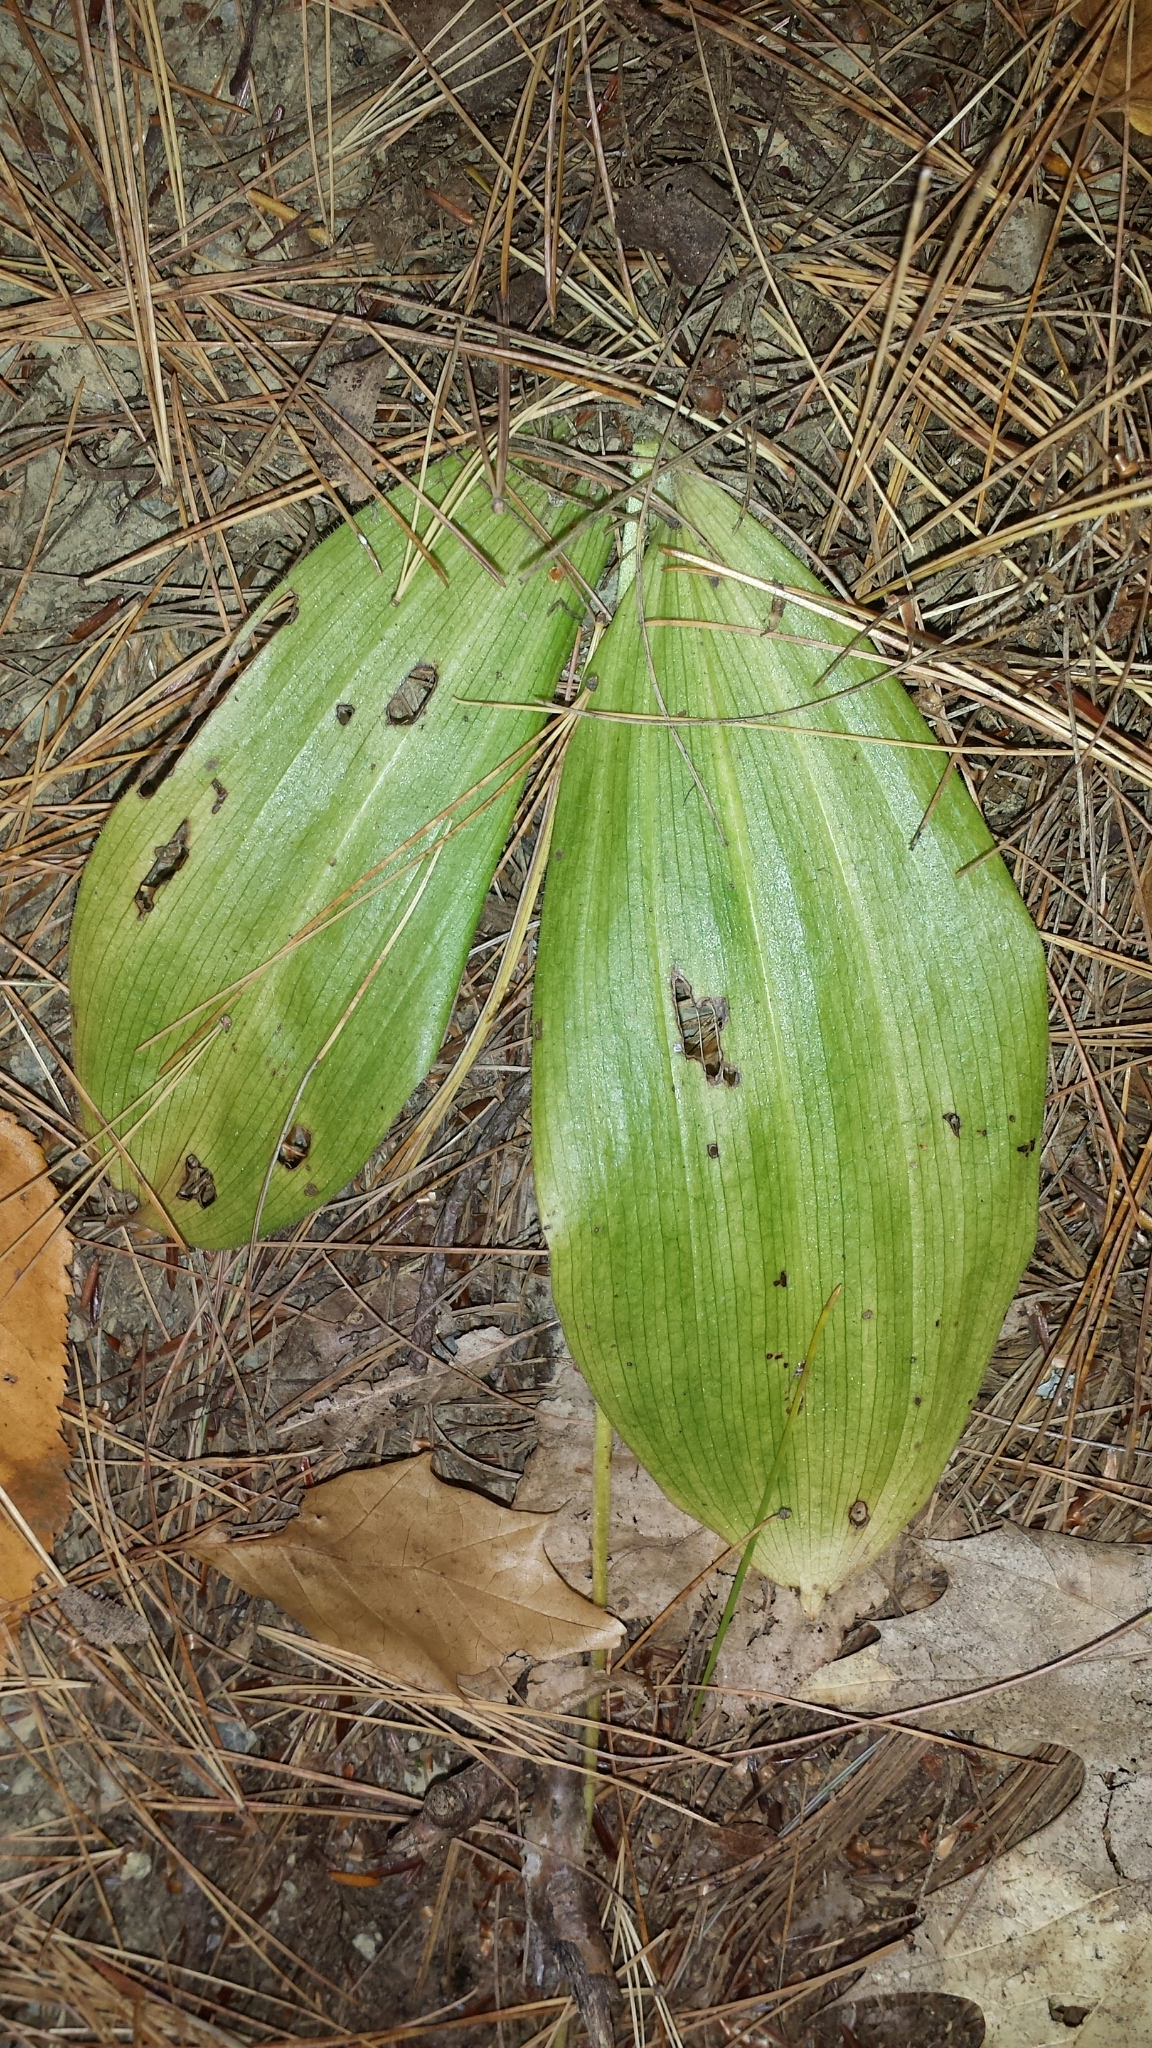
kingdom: Plantae
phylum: Tracheophyta
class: Liliopsida
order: Asparagales
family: Orchidaceae
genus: Cypripedium
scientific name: Cypripedium acaule
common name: Pink lady's-slipper
